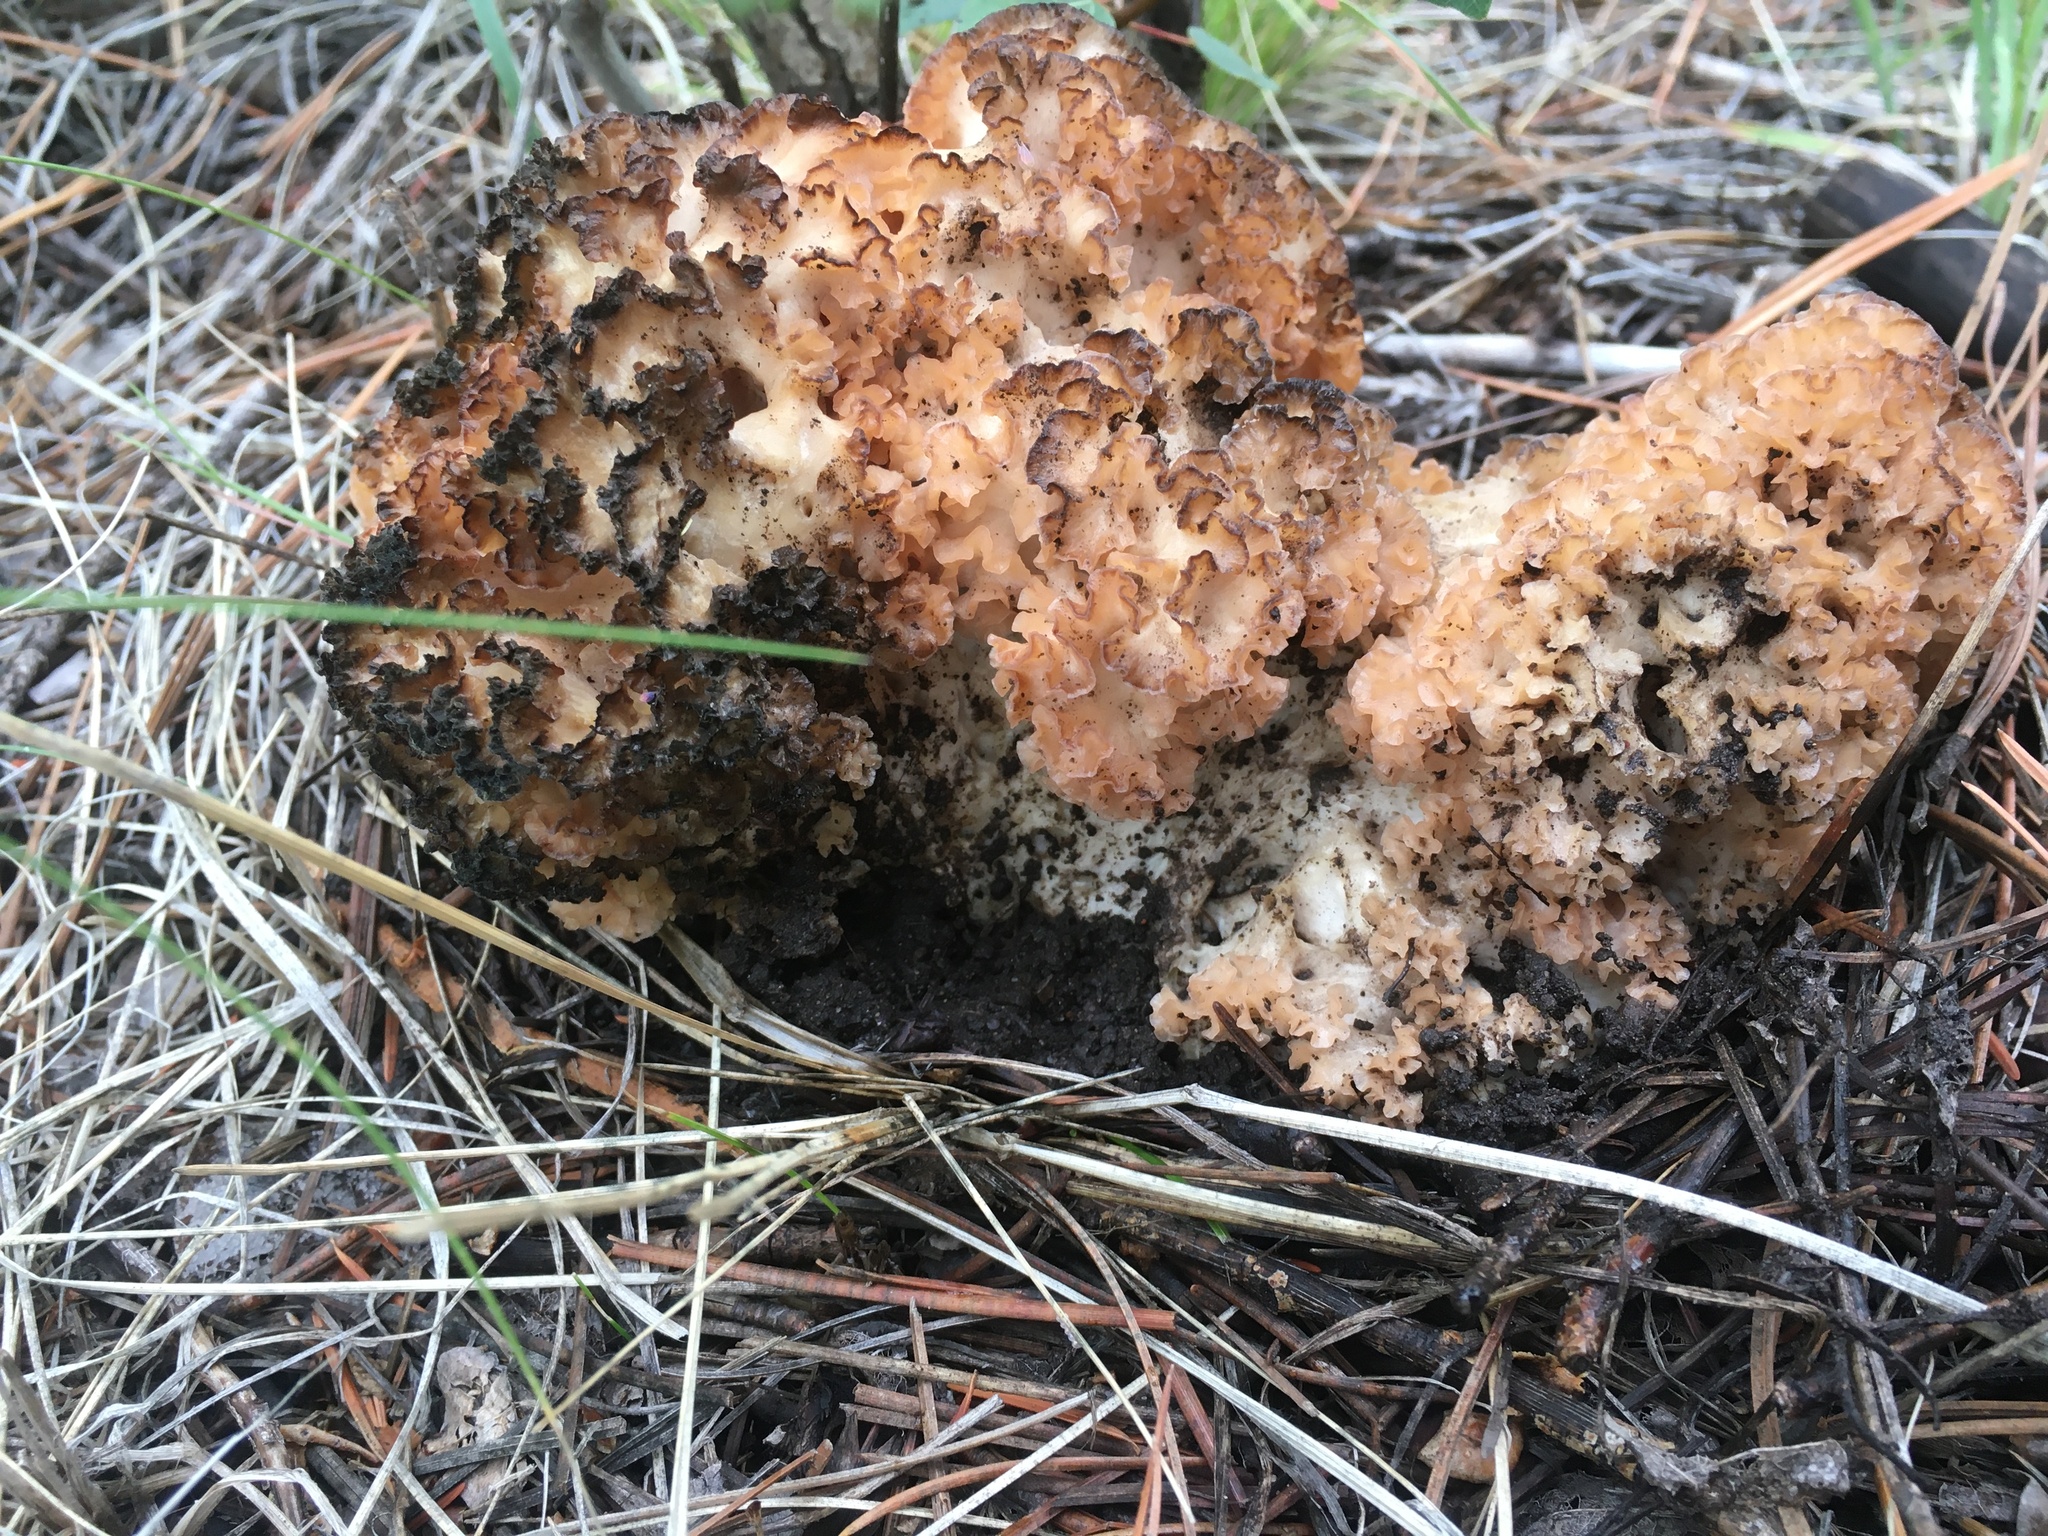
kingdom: Fungi
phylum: Basidiomycota
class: Agaricomycetes
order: Polyporales
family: Sparassidaceae
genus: Sparassis
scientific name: Sparassis americana
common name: American cauliflower mushroom
